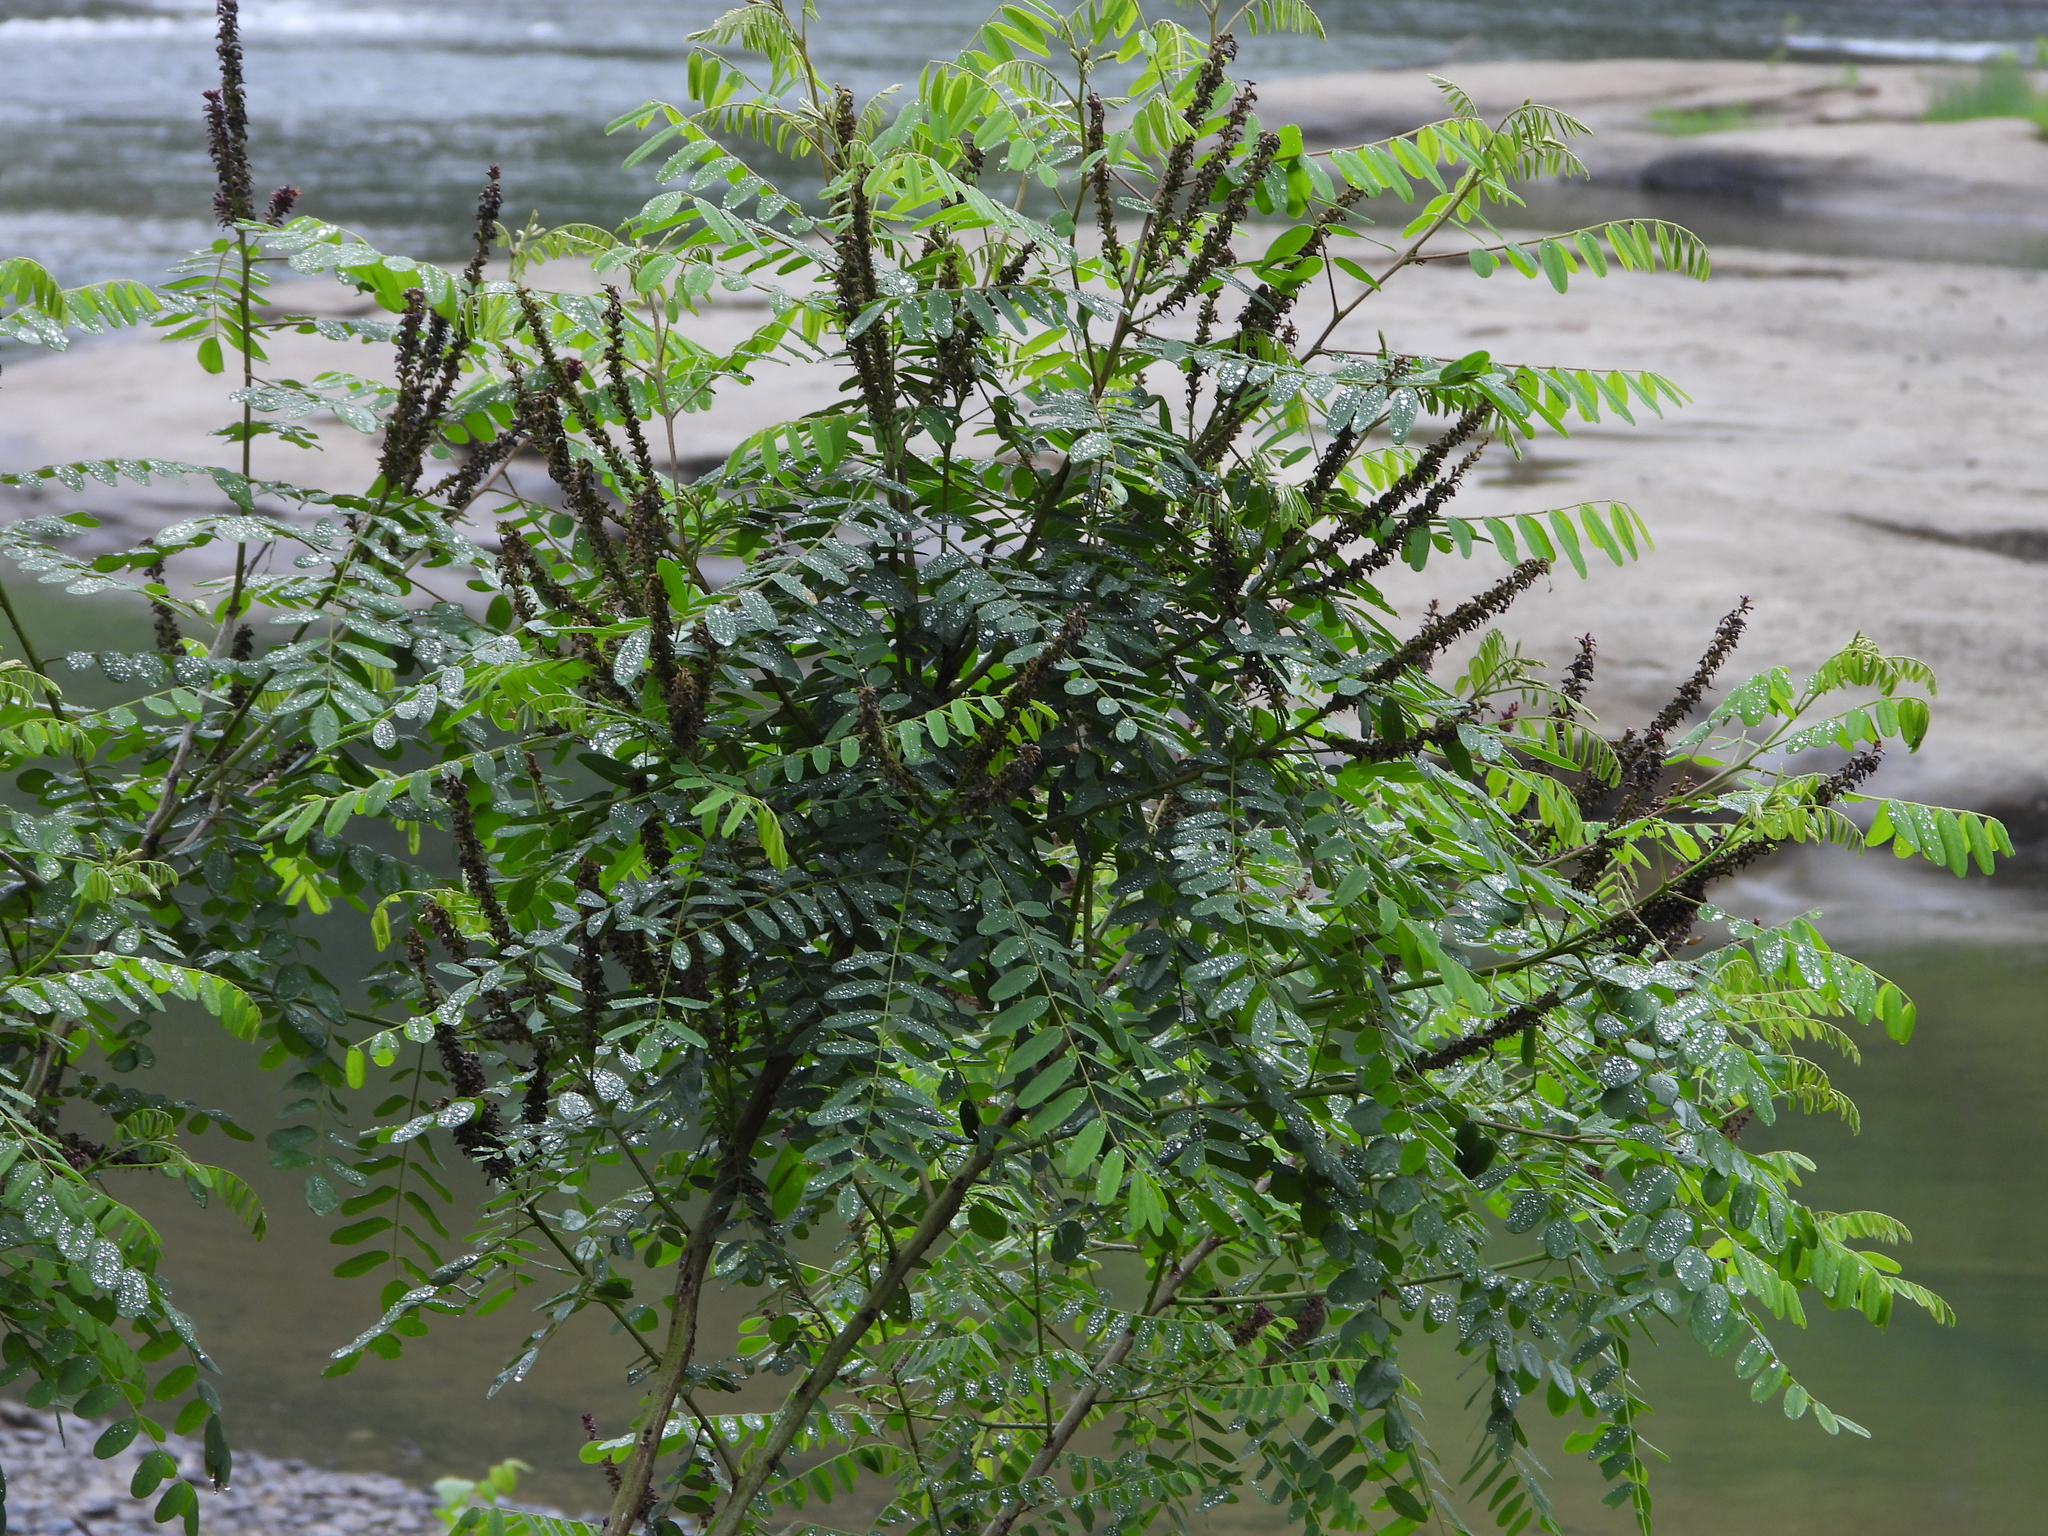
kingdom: Plantae
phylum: Tracheophyta
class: Magnoliopsida
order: Fabales
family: Fabaceae
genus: Amorpha
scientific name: Amorpha fruticosa
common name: False indigo
